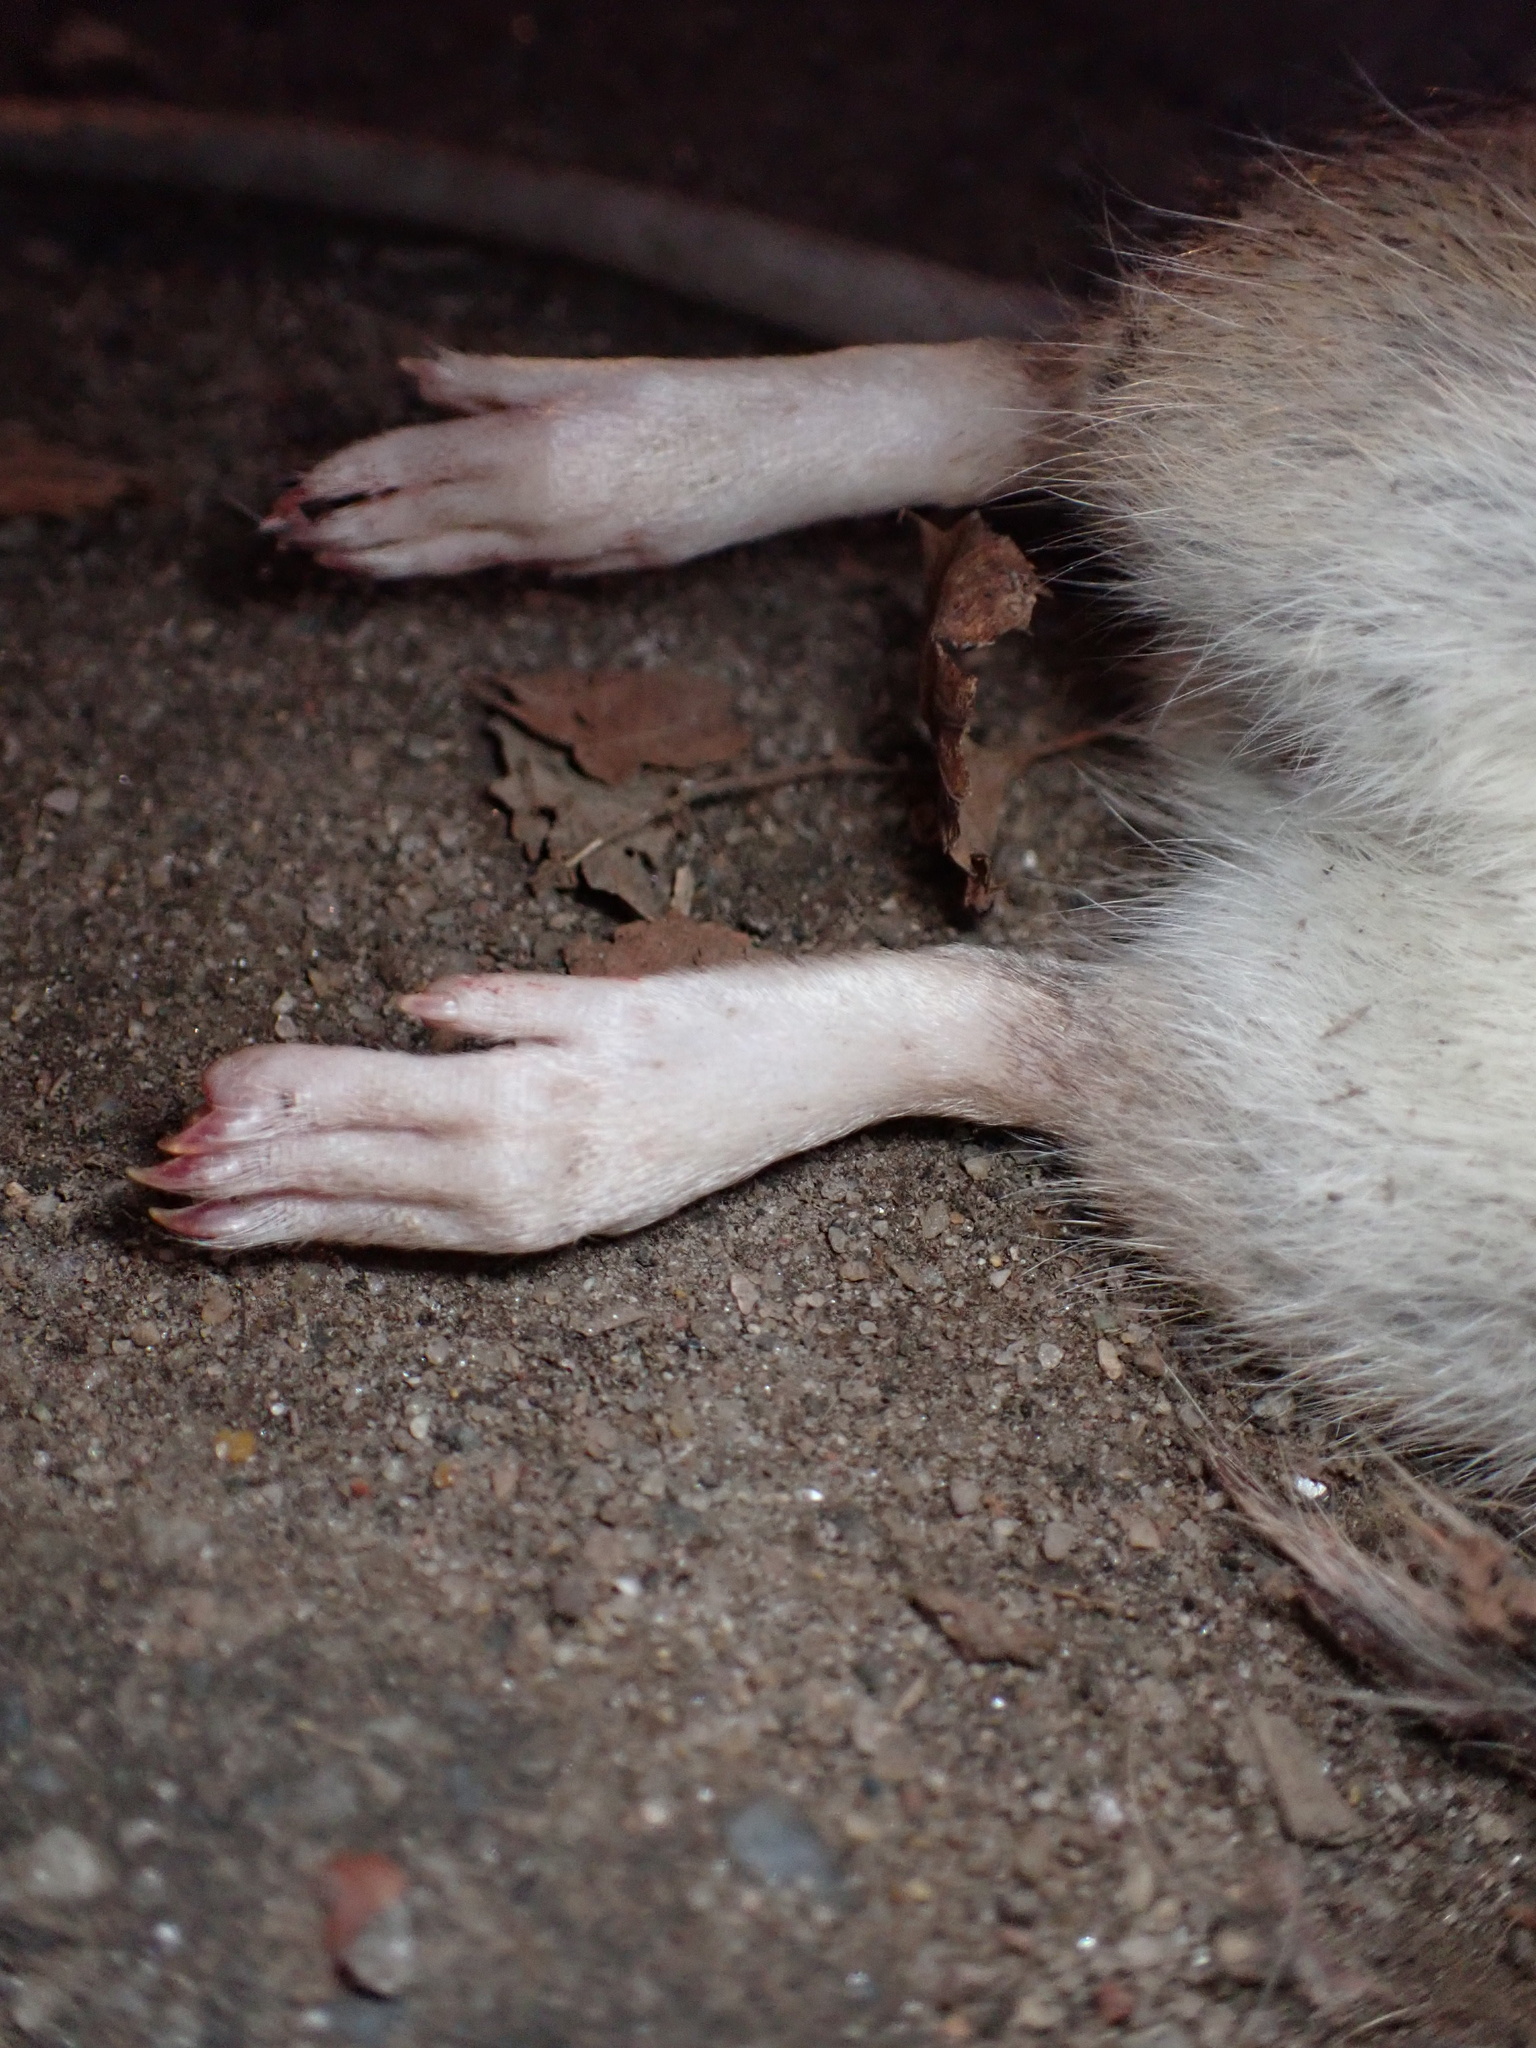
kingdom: Animalia
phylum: Chordata
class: Mammalia
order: Rodentia
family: Muridae
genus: Rattus
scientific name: Rattus norvegicus
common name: Brown rat
